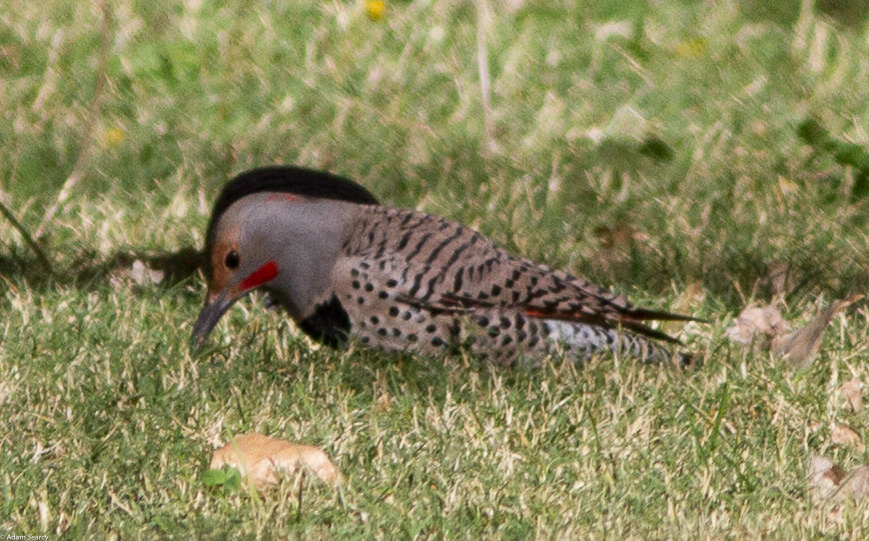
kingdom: Animalia
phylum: Chordata
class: Aves
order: Piciformes
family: Picidae
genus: Colaptes
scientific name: Colaptes
